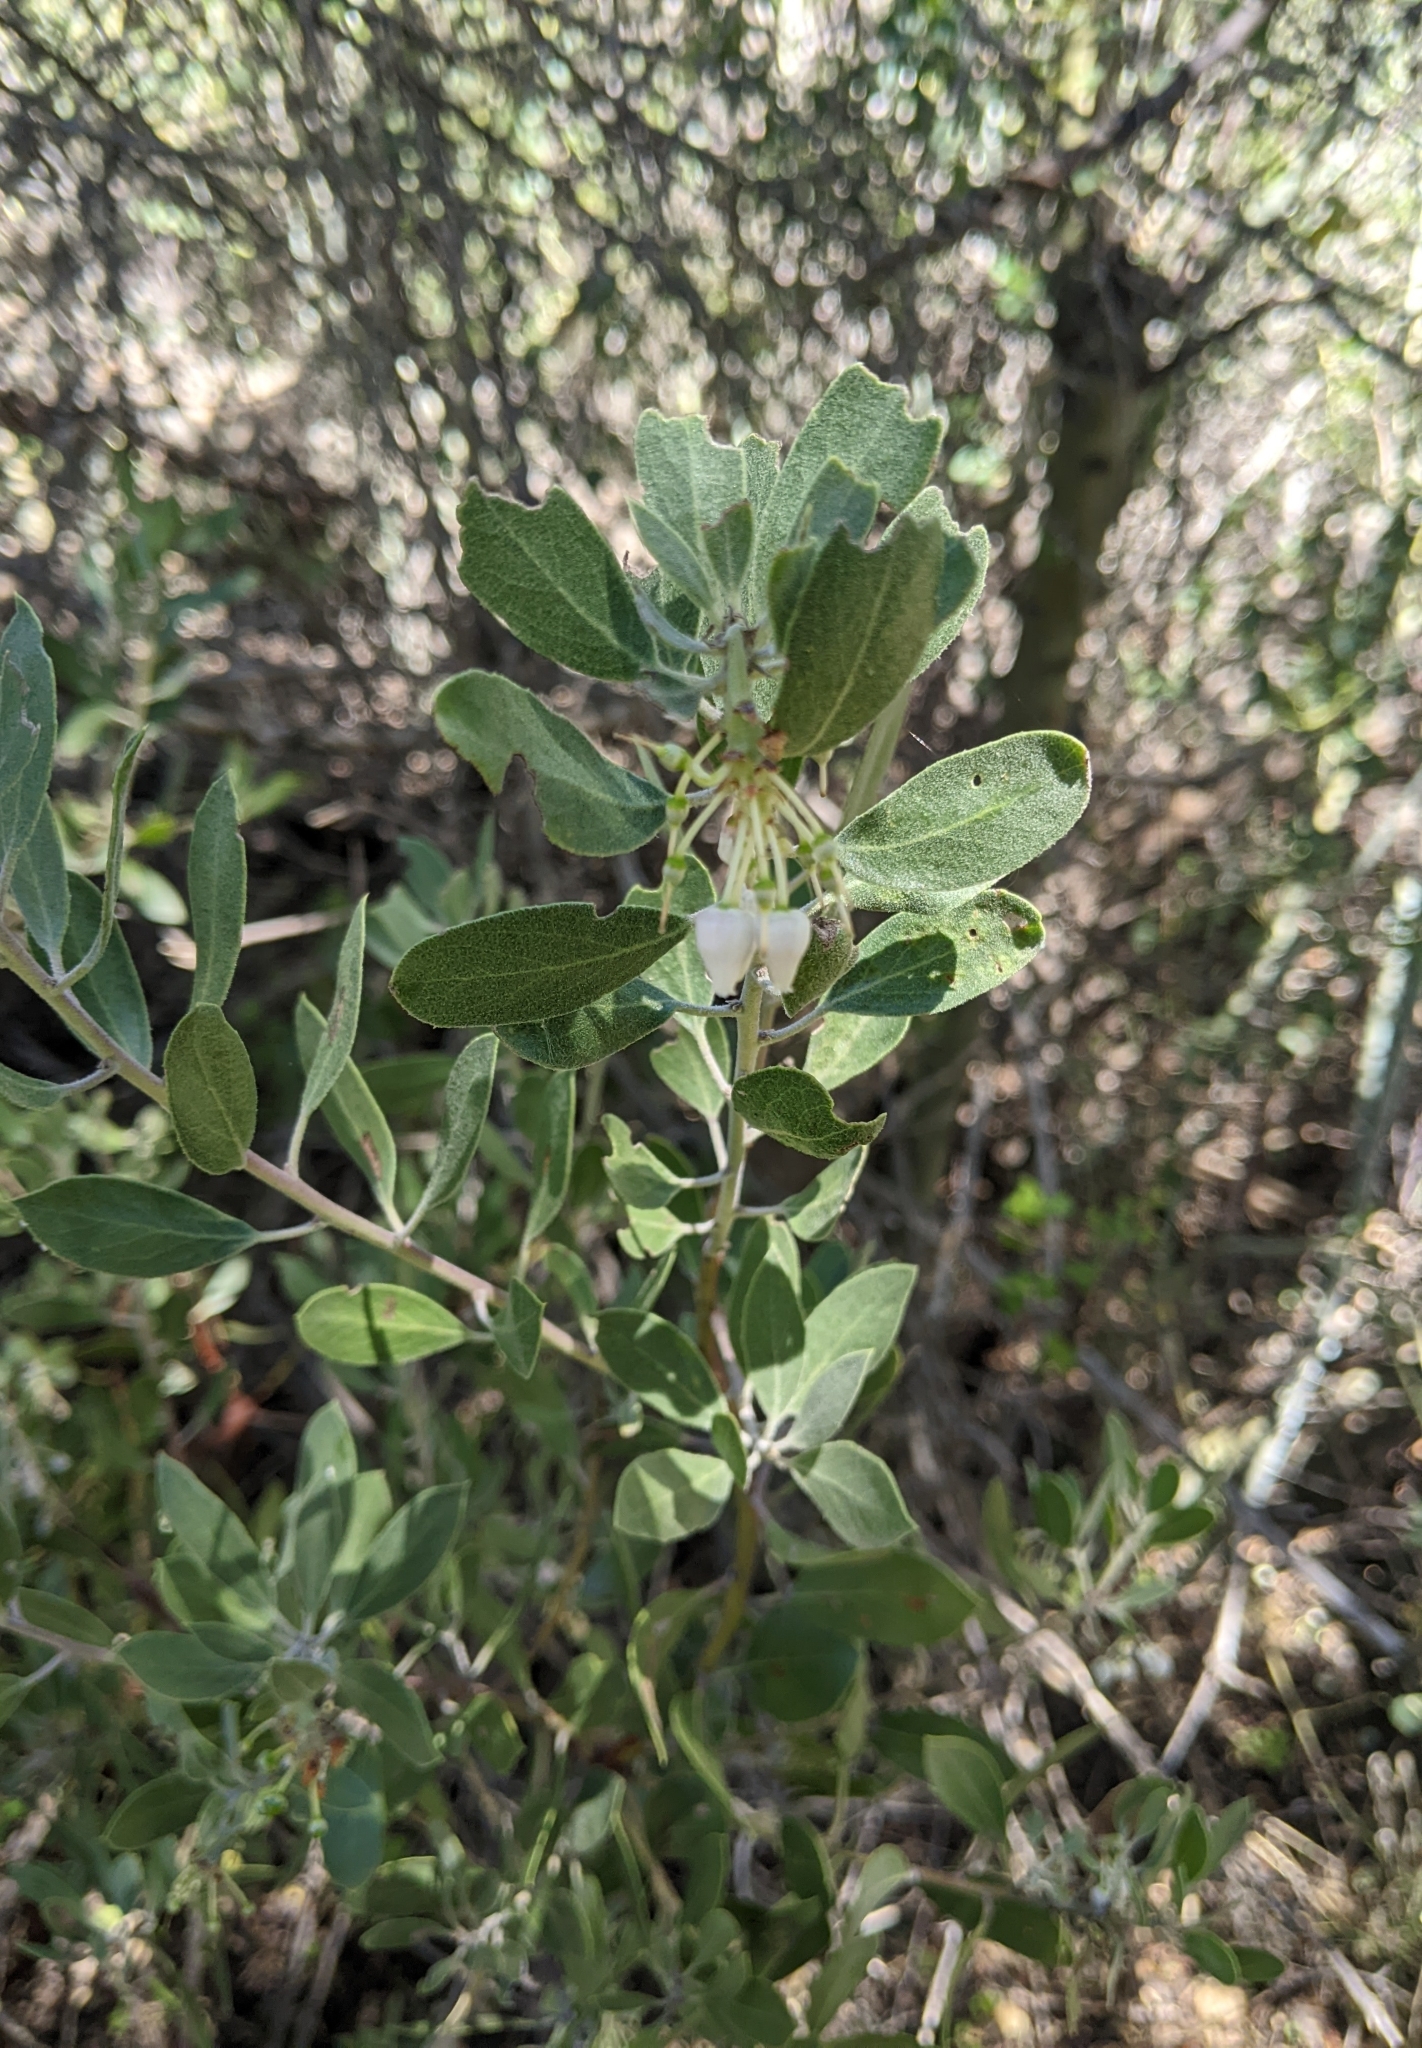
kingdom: Plantae
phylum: Tracheophyta
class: Magnoliopsida
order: Ericales
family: Ericaceae
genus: Arctostaphylos
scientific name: Arctostaphylos pungens
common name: Mexican manzanita
